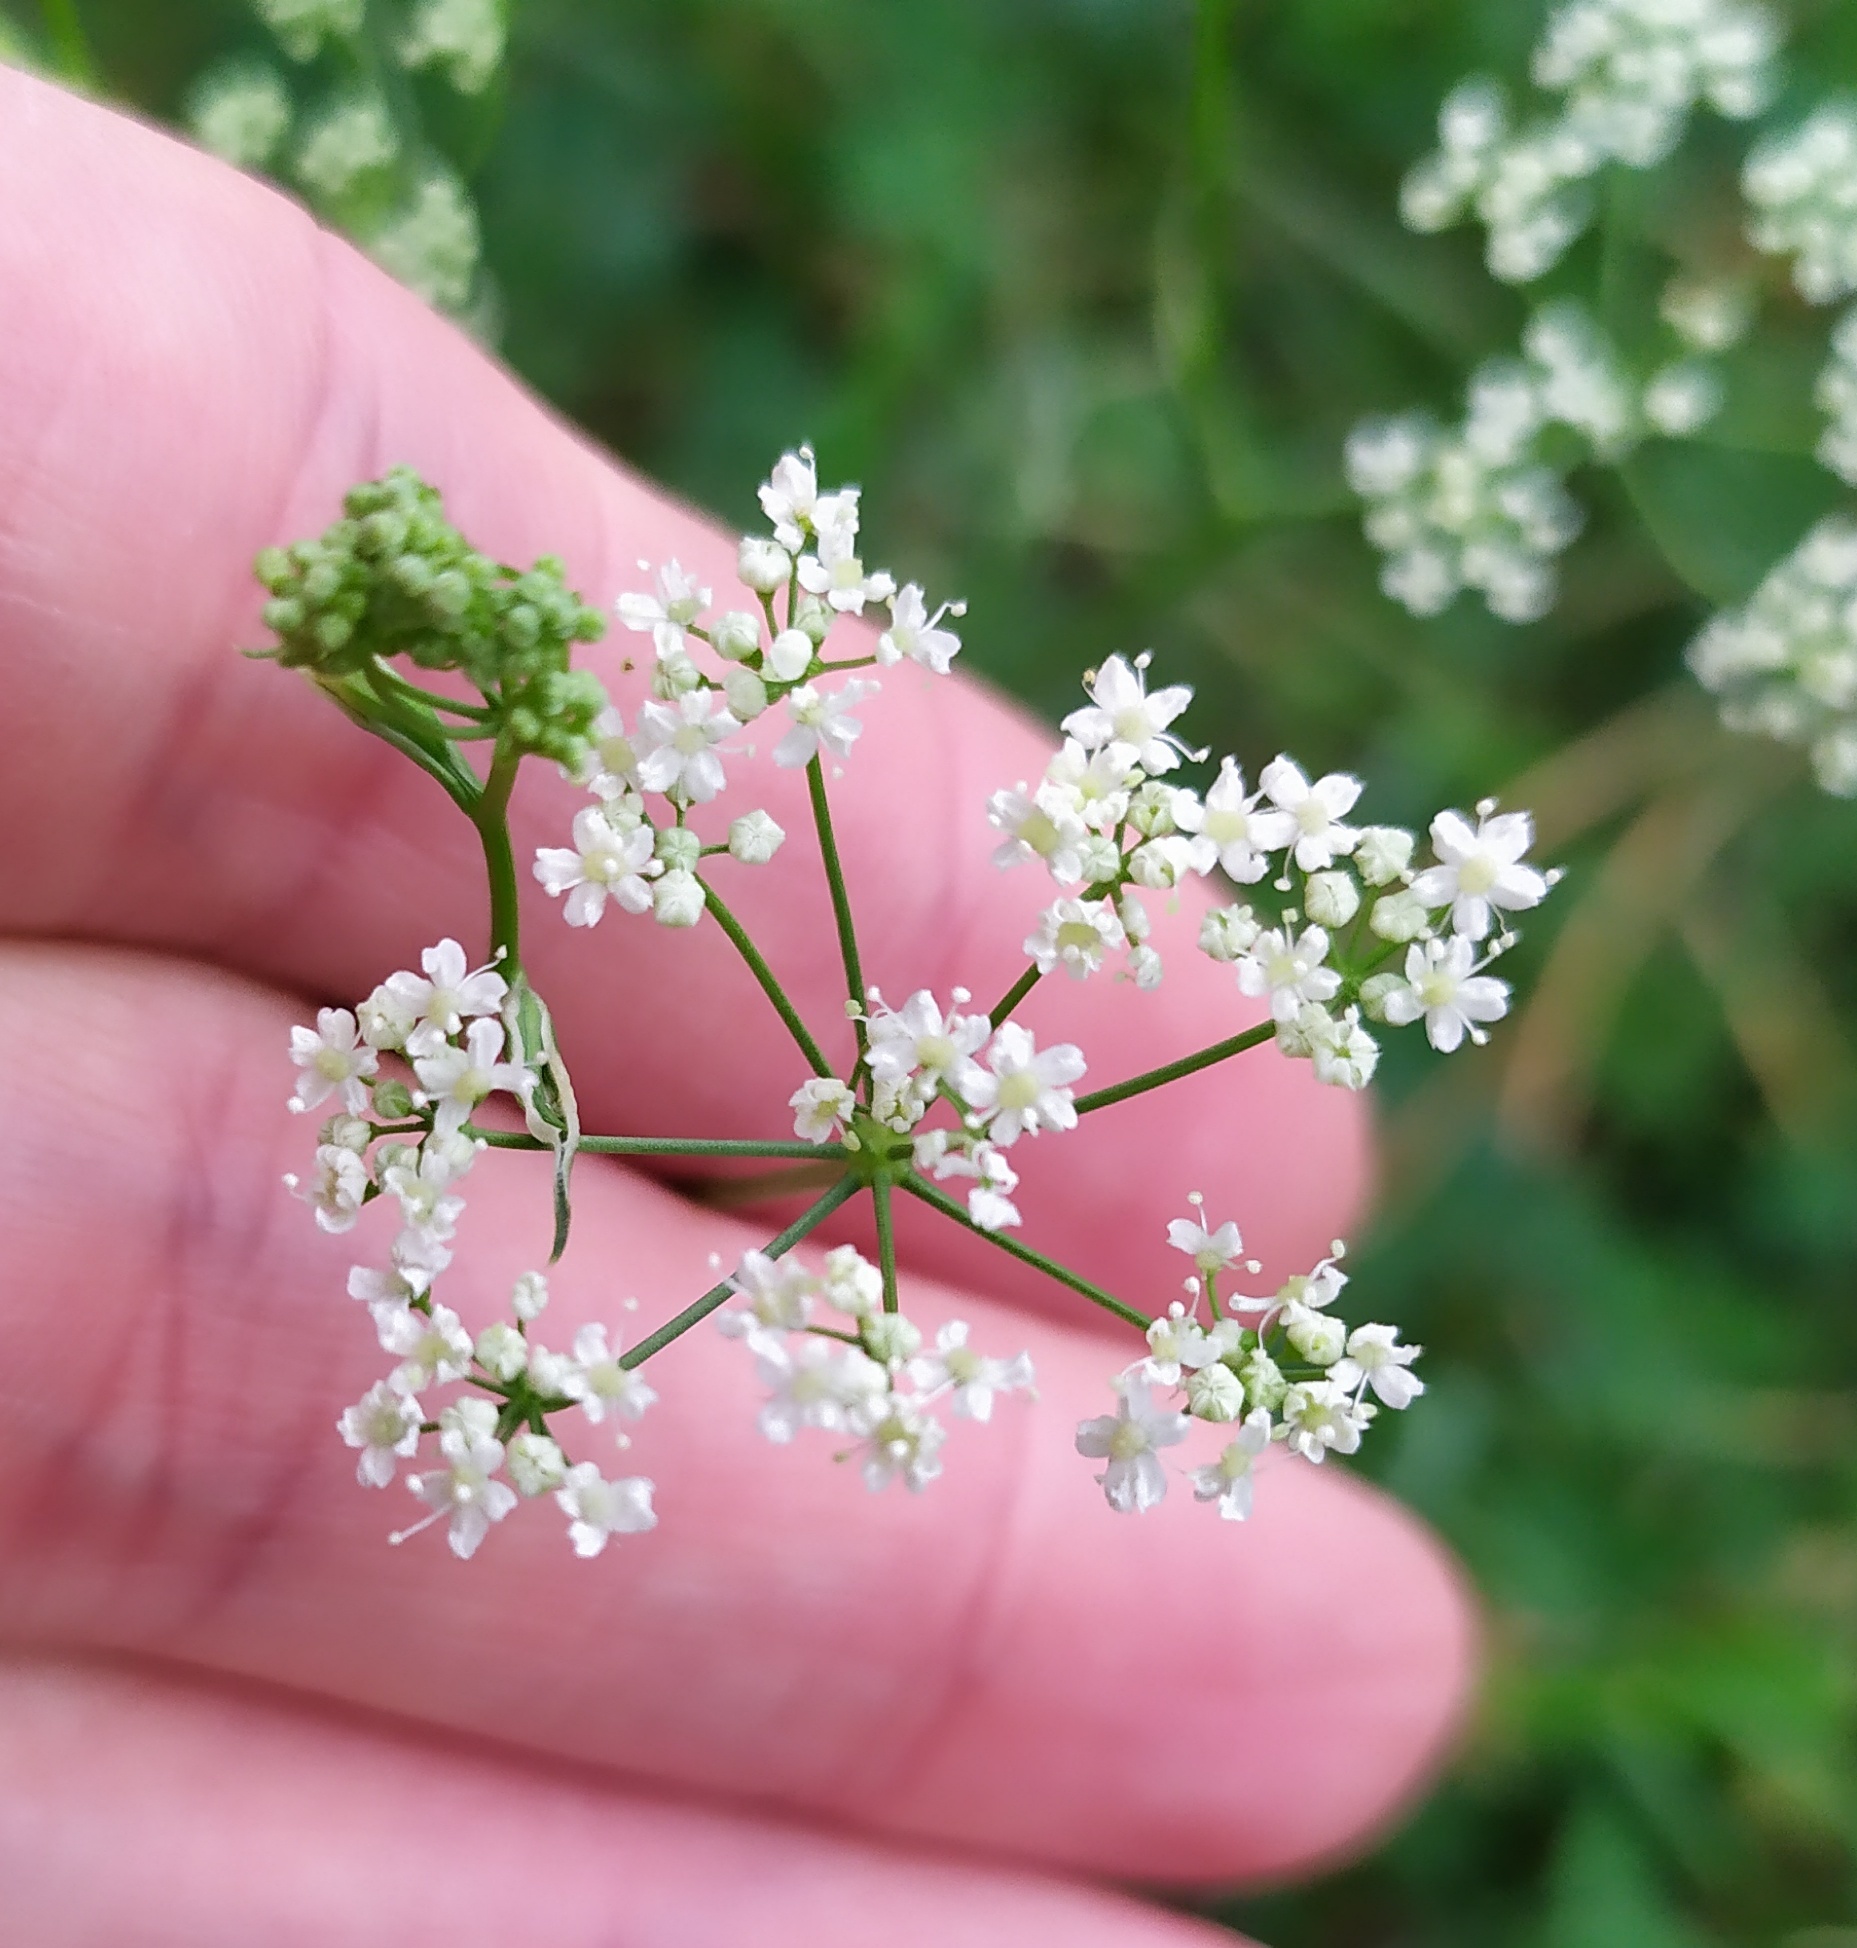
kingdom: Plantae
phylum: Tracheophyta
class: Magnoliopsida
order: Apiales
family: Apiaceae
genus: Pimpinella
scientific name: Pimpinella saxifraga
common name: Burnet-saxifrage
